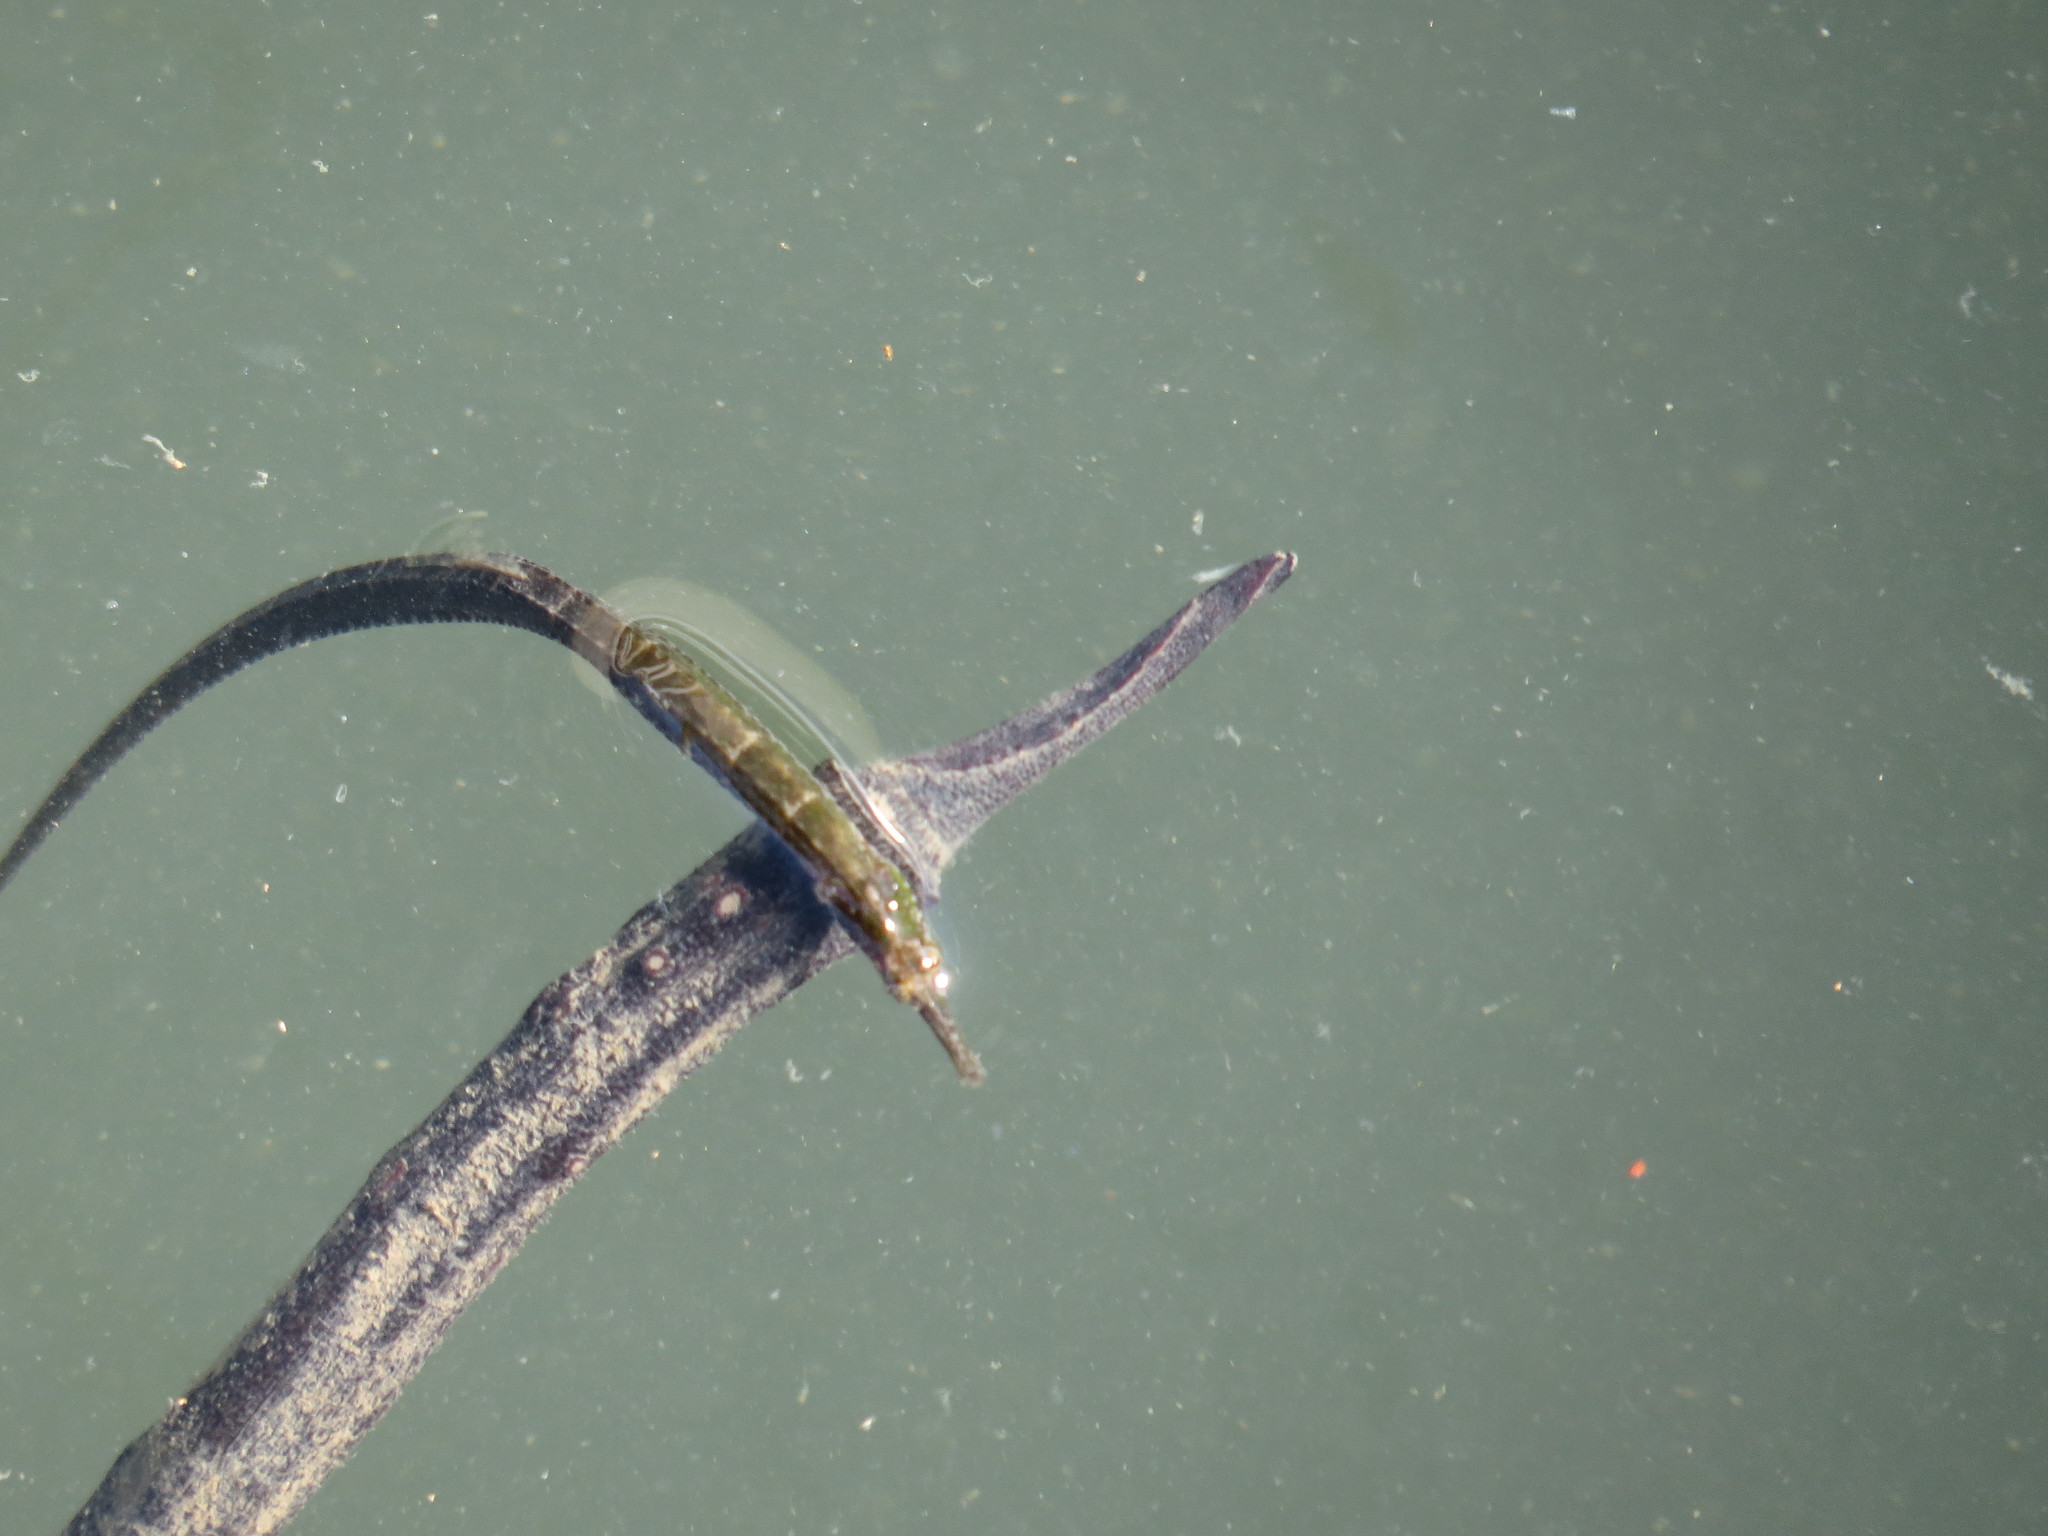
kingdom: Animalia
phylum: Chordata
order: Syngnathiformes
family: Syngnathidae
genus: Hippichthys
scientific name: Hippichthys penicillus
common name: Beady pipefish
